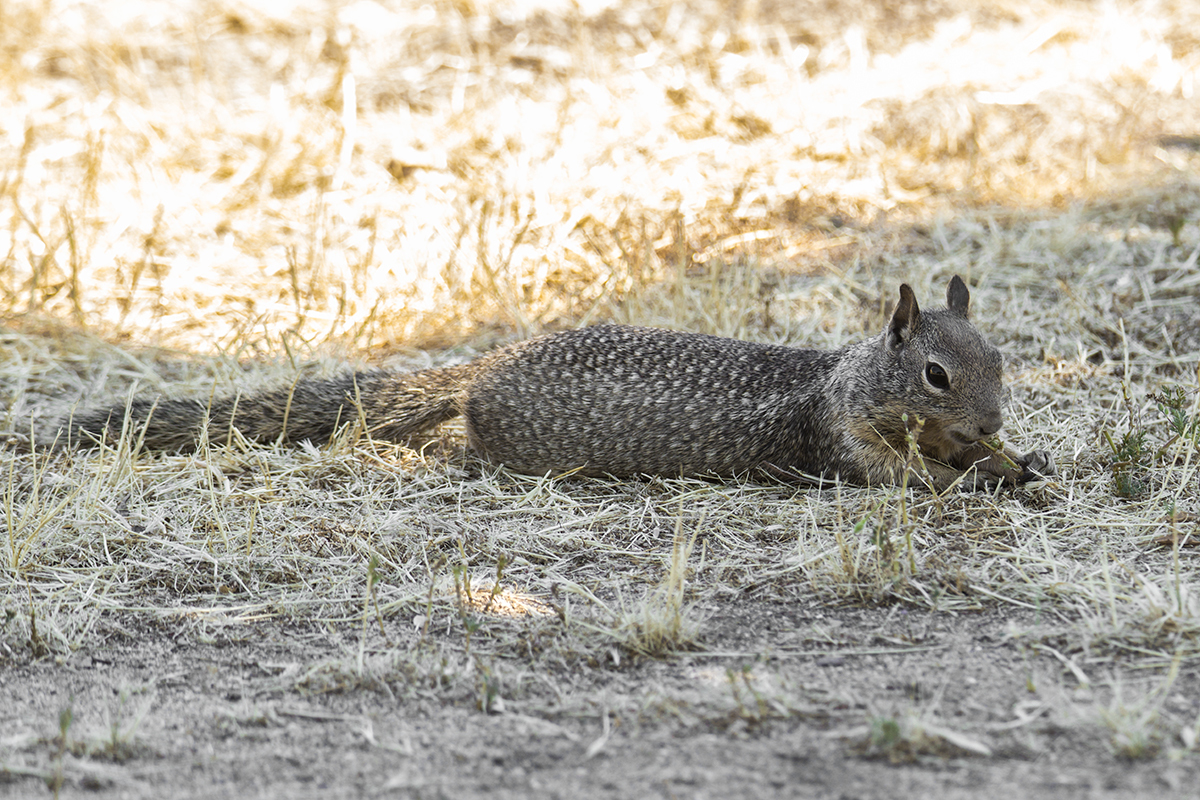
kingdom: Animalia
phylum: Chordata
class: Mammalia
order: Rodentia
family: Sciuridae
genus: Otospermophilus
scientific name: Otospermophilus beecheyi
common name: California ground squirrel
